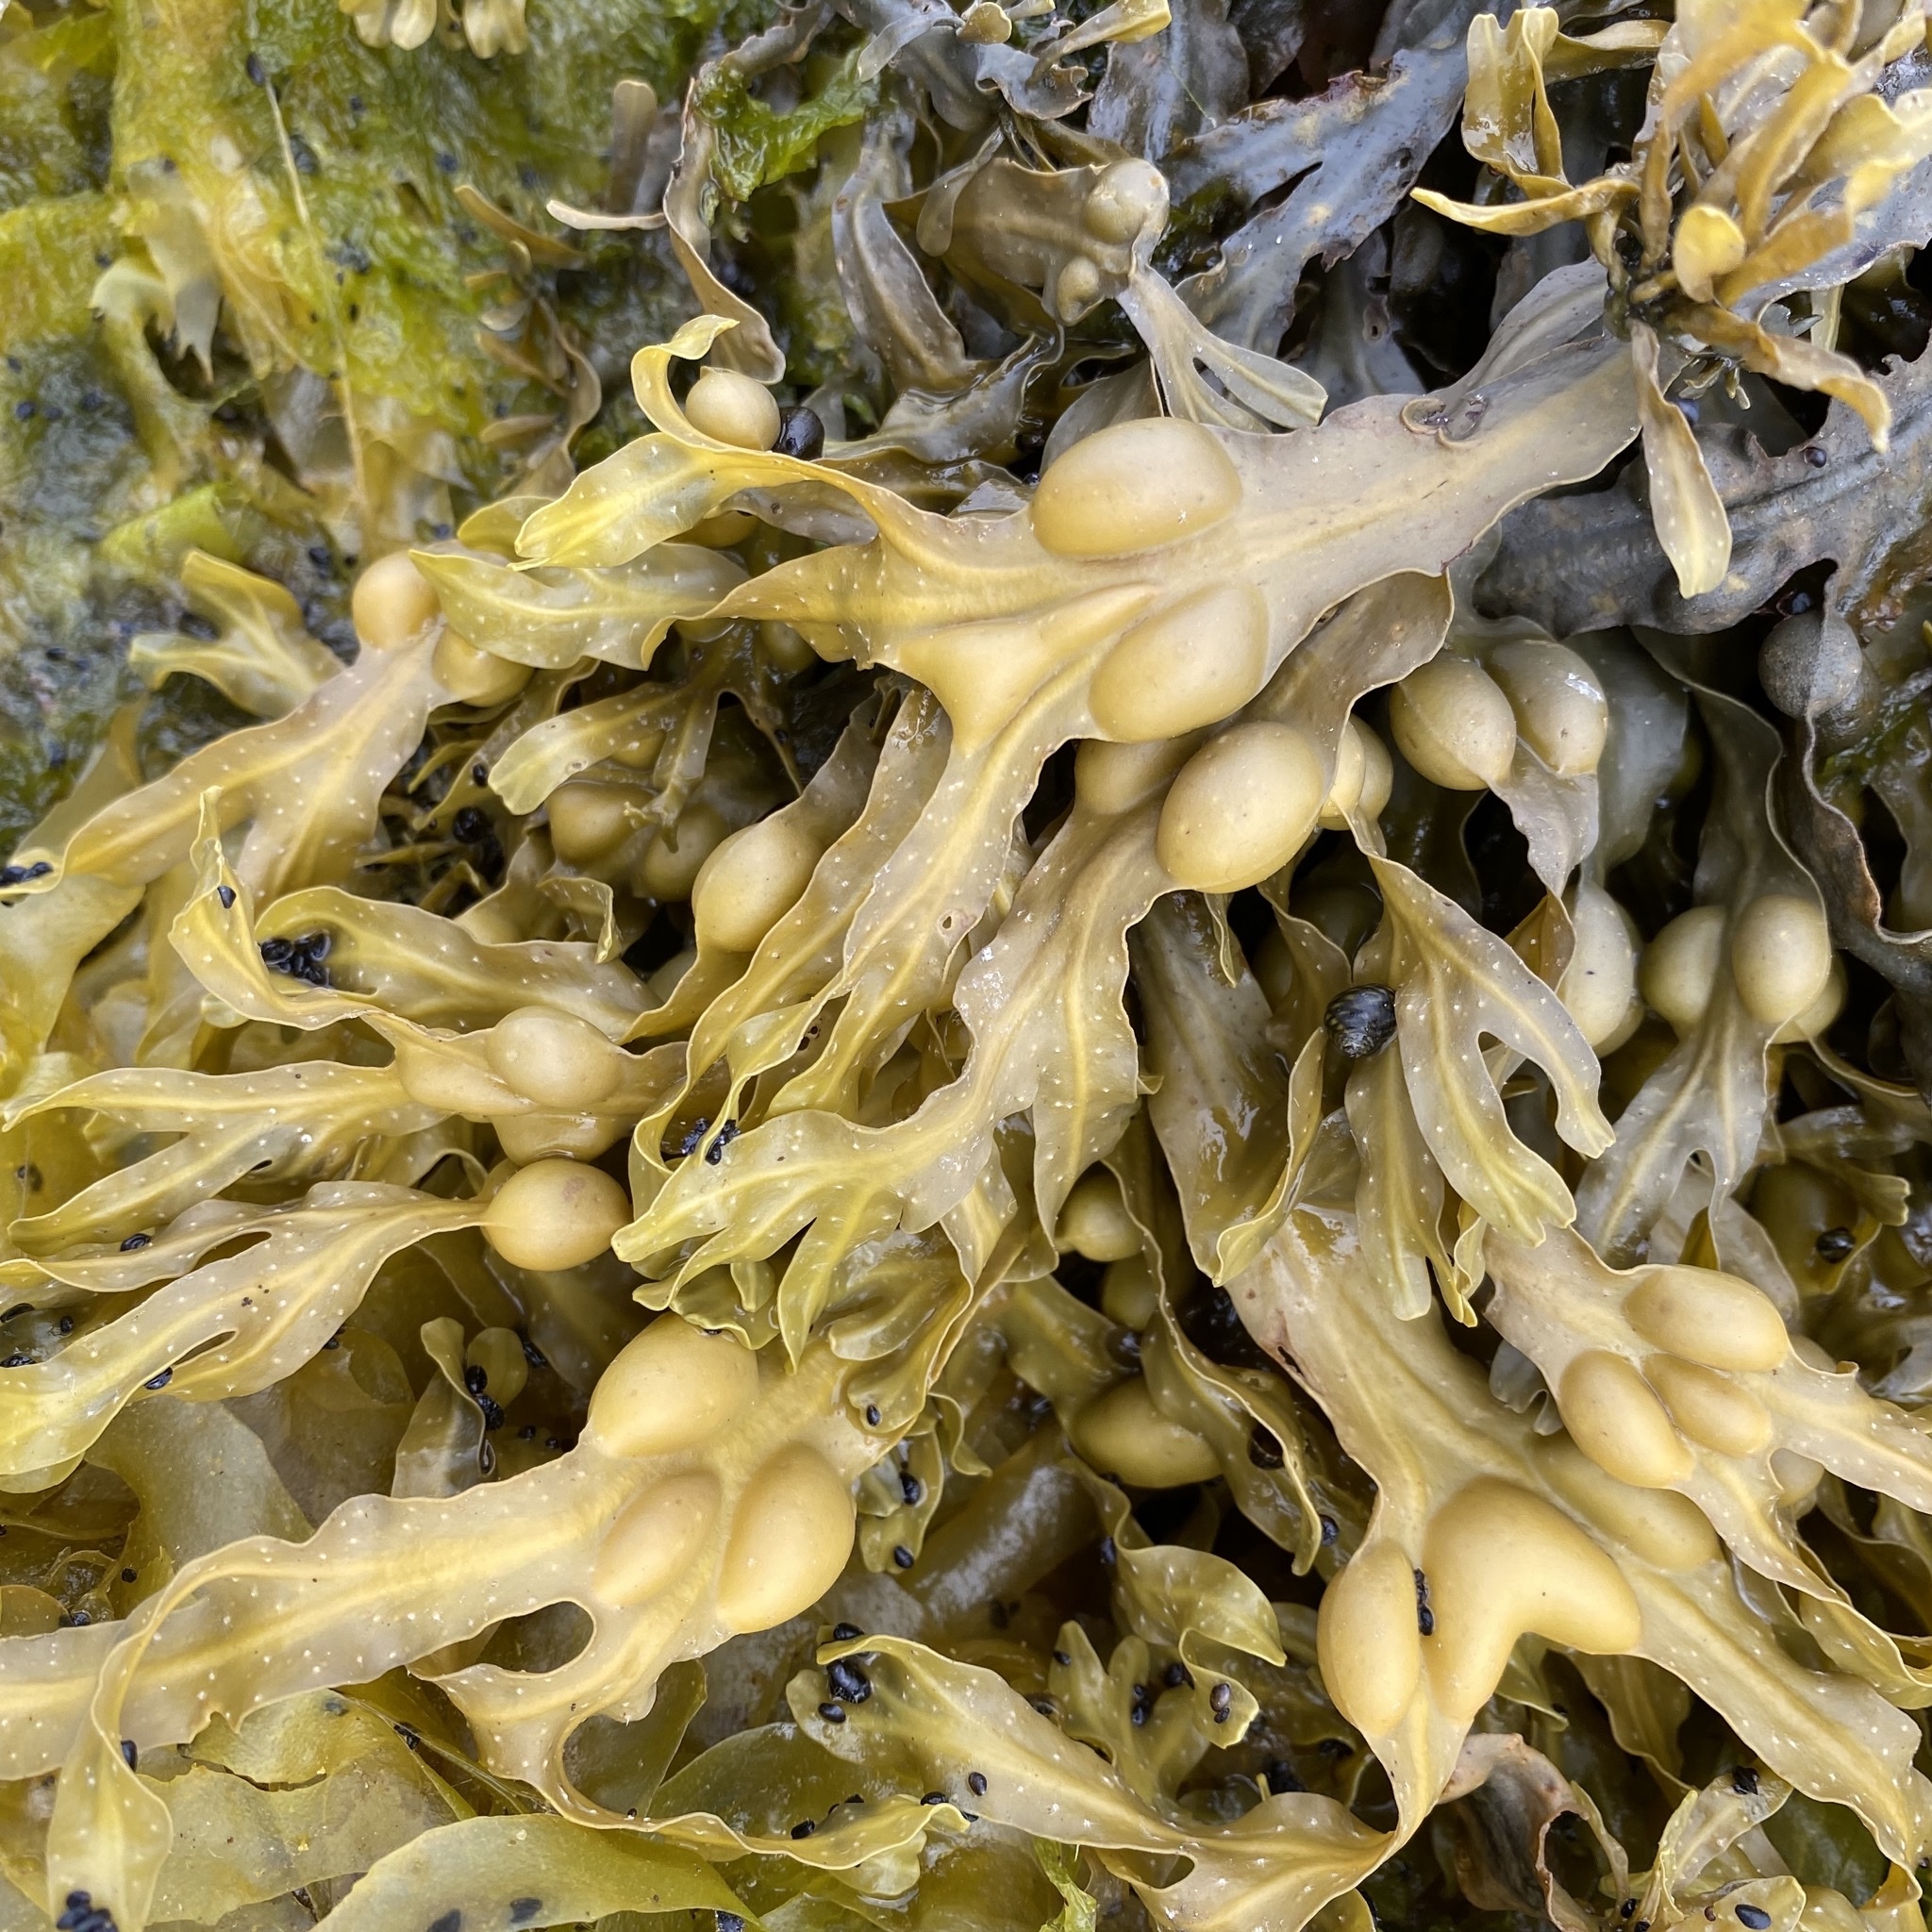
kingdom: Chromista
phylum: Ochrophyta
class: Phaeophyceae
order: Fucales
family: Fucaceae
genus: Fucus
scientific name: Fucus vesiculosus
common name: Bladder wrack
